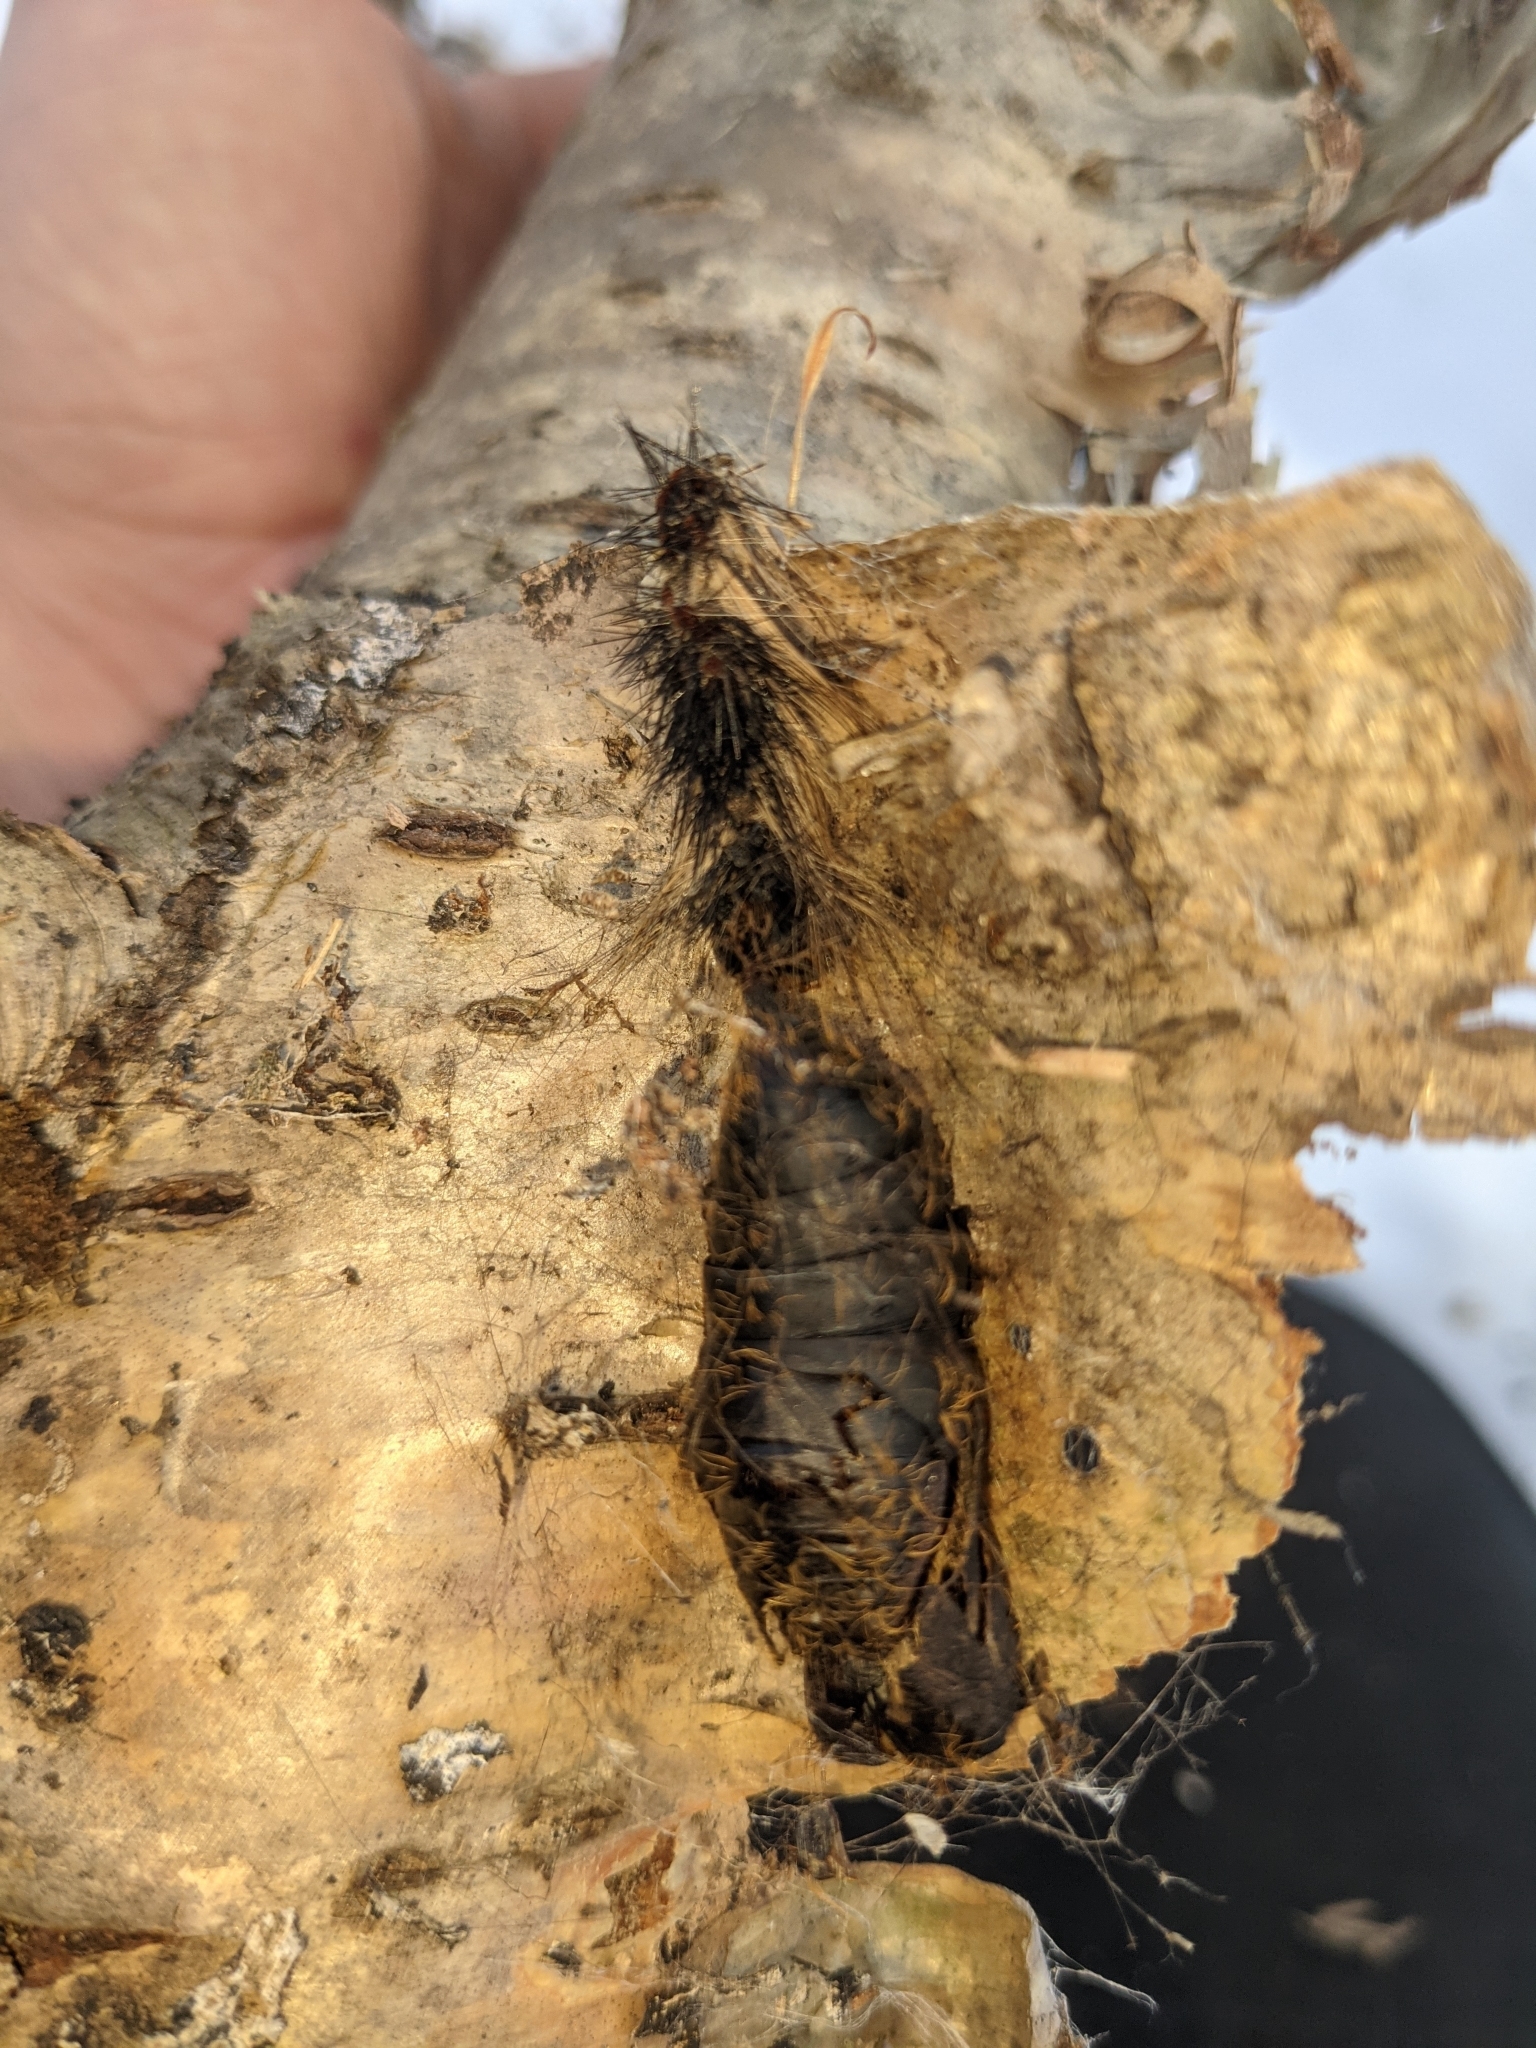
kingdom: Animalia
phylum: Arthropoda
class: Insecta
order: Lepidoptera
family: Erebidae
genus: Lymantria
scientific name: Lymantria dispar
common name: Gypsy moth
